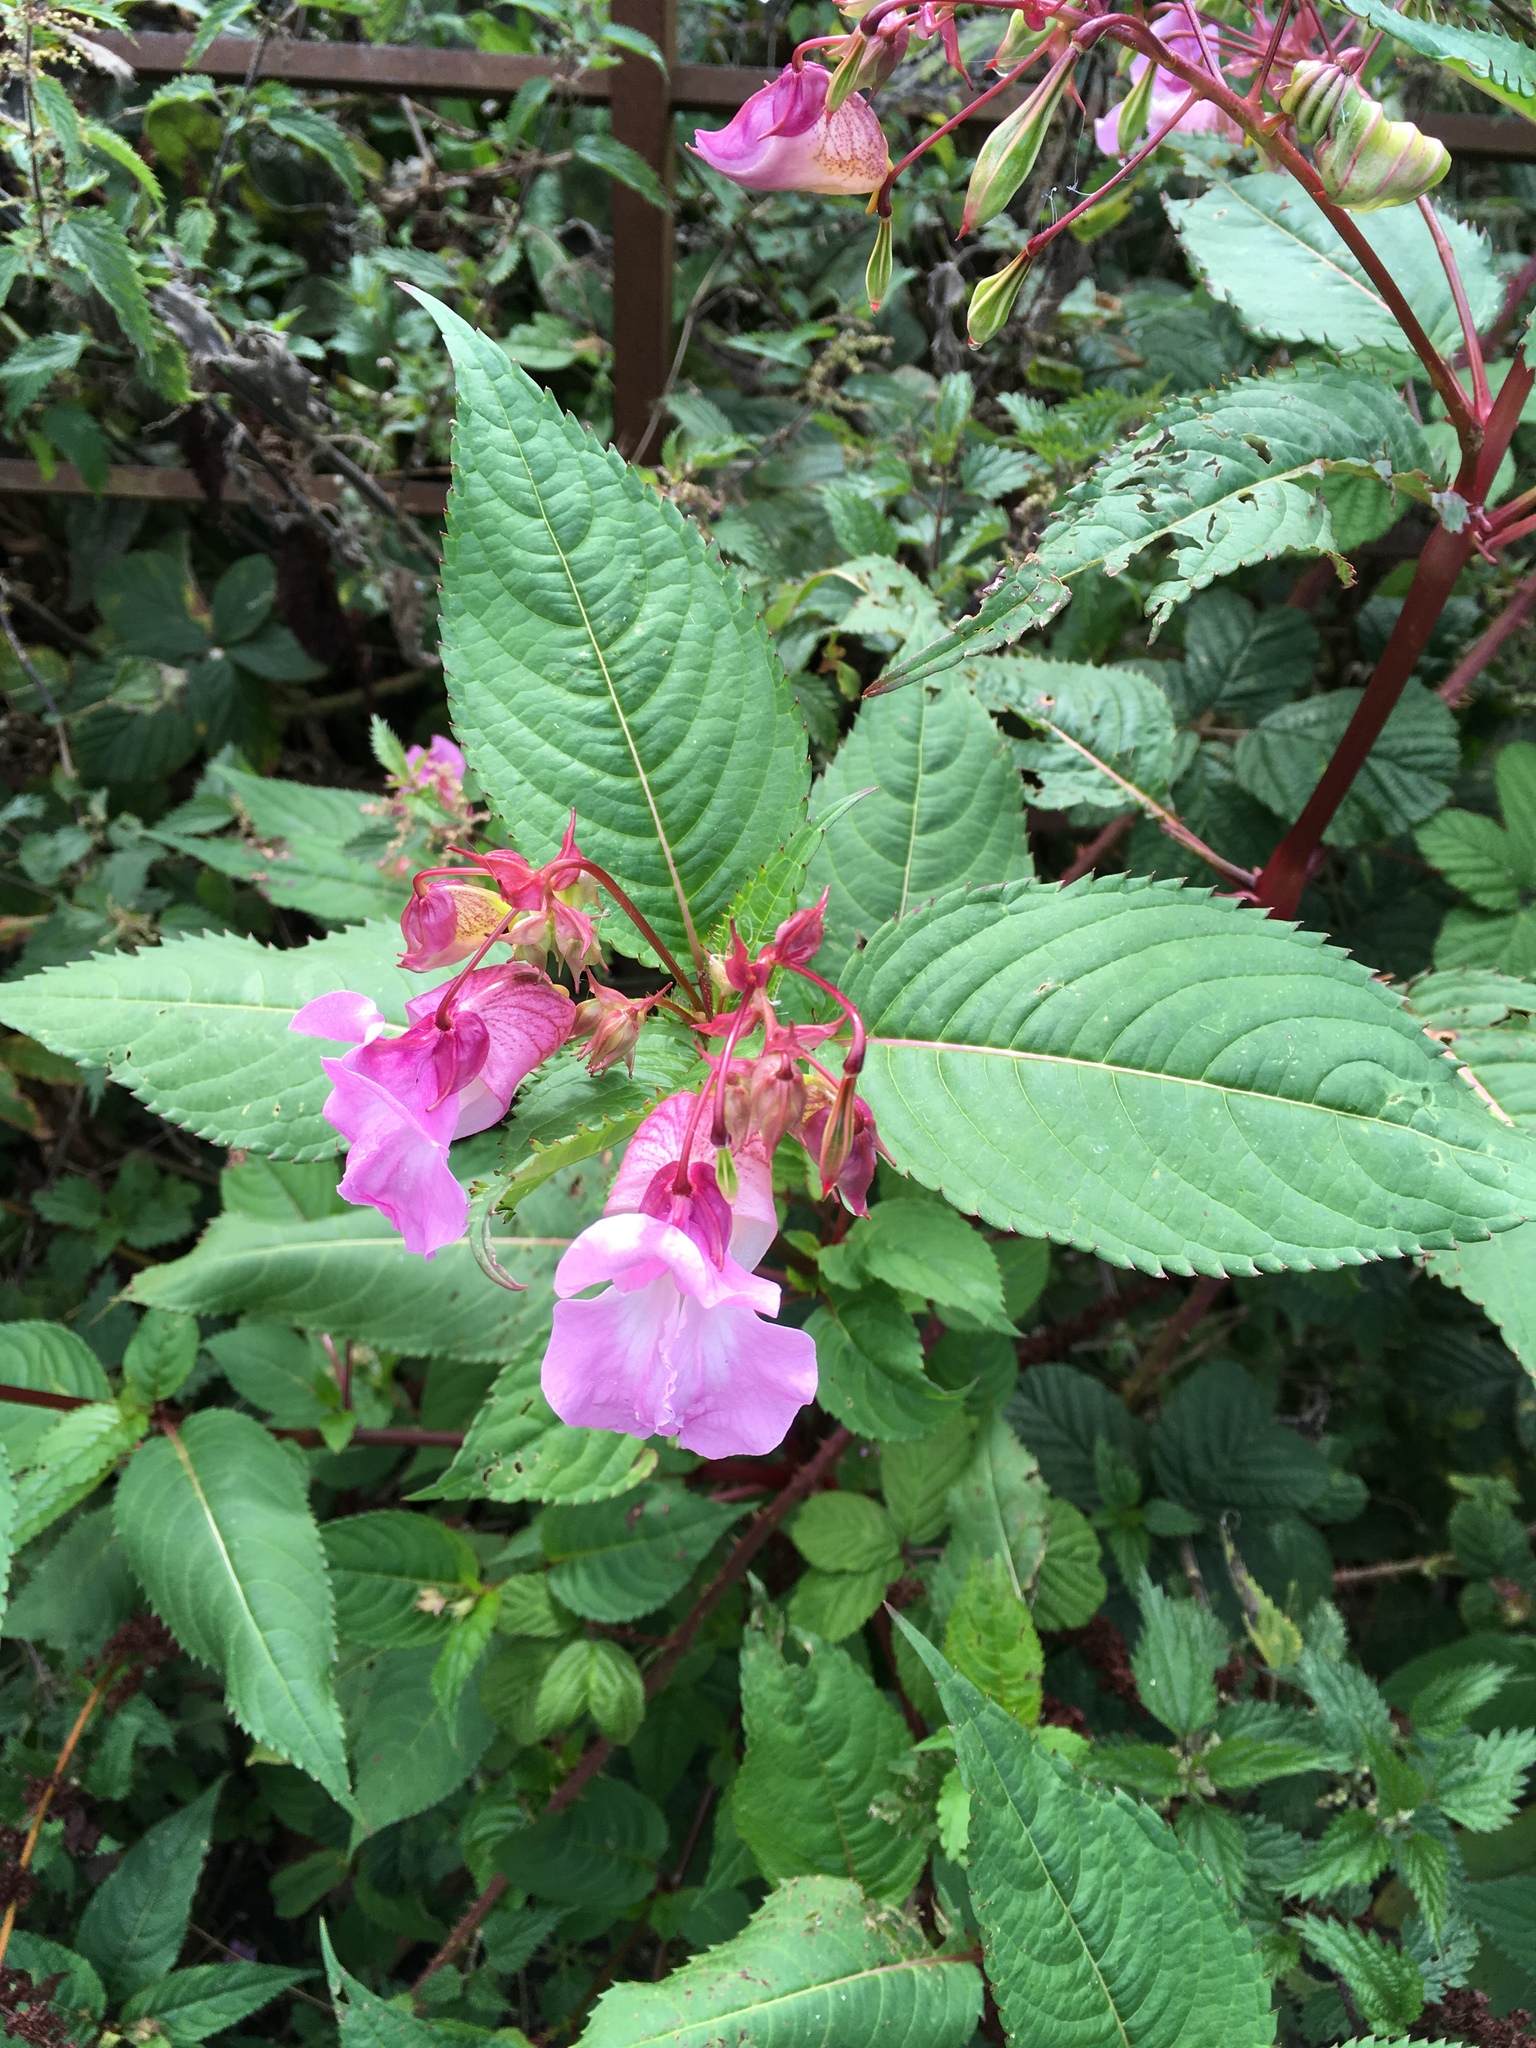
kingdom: Plantae
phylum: Tracheophyta
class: Magnoliopsida
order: Ericales
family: Balsaminaceae
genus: Impatiens
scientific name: Impatiens glandulifera
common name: Himalayan balsam
